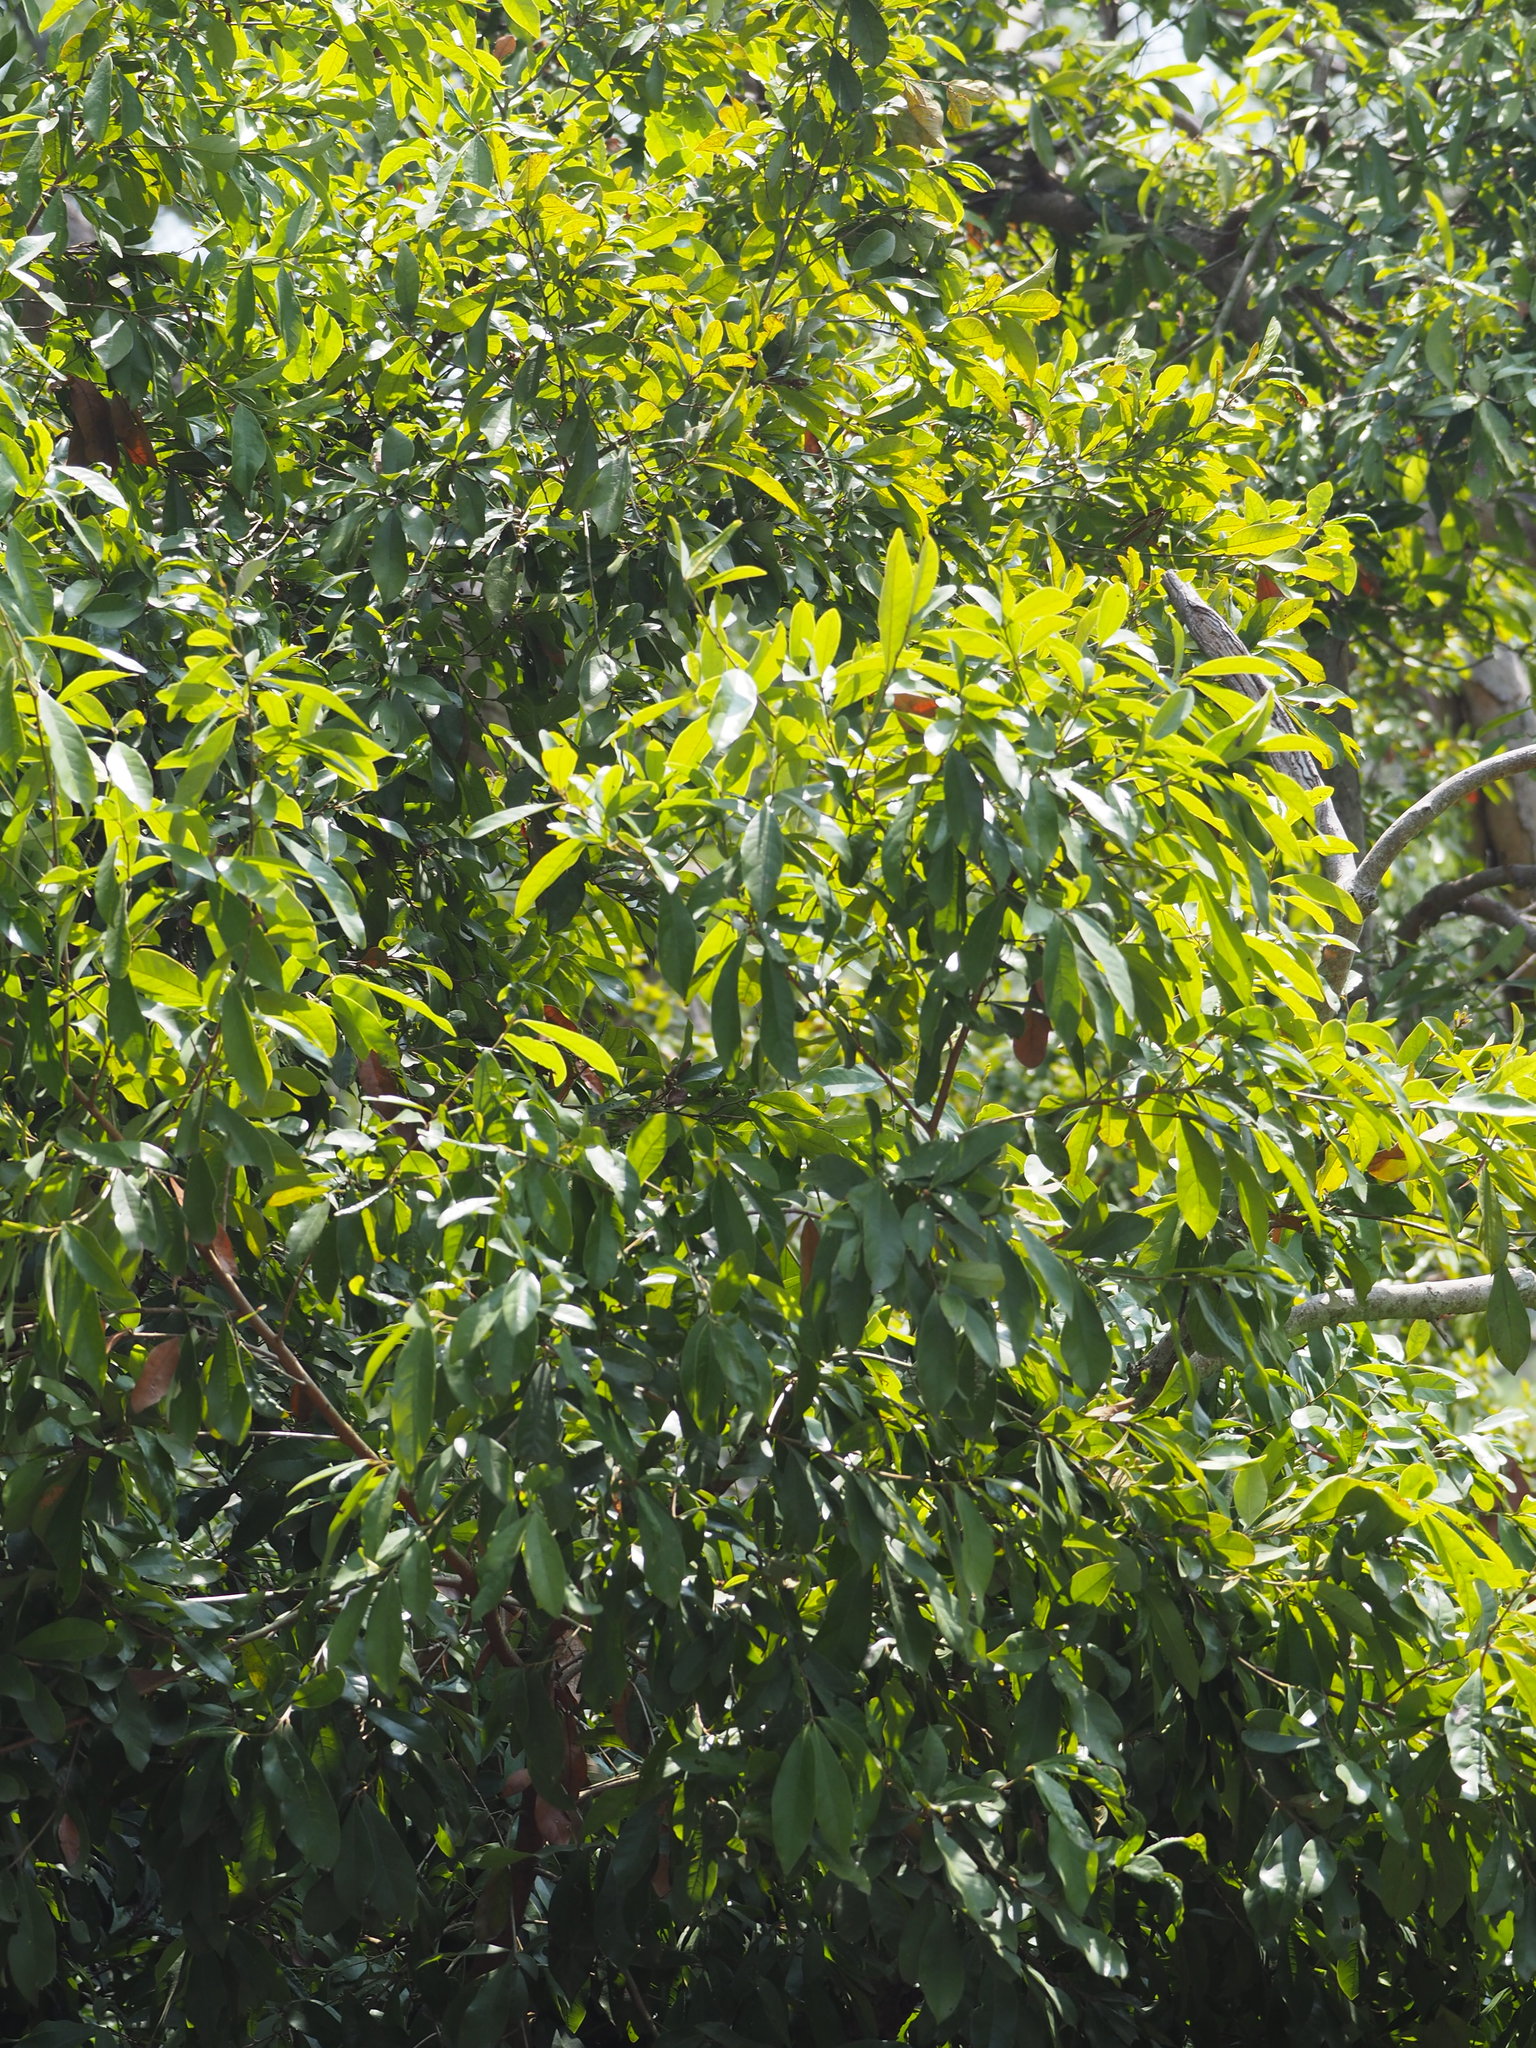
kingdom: Plantae
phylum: Tracheophyta
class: Magnoliopsida
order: Laurales
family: Lauraceae
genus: Litsea
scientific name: Litsea hypophaea
